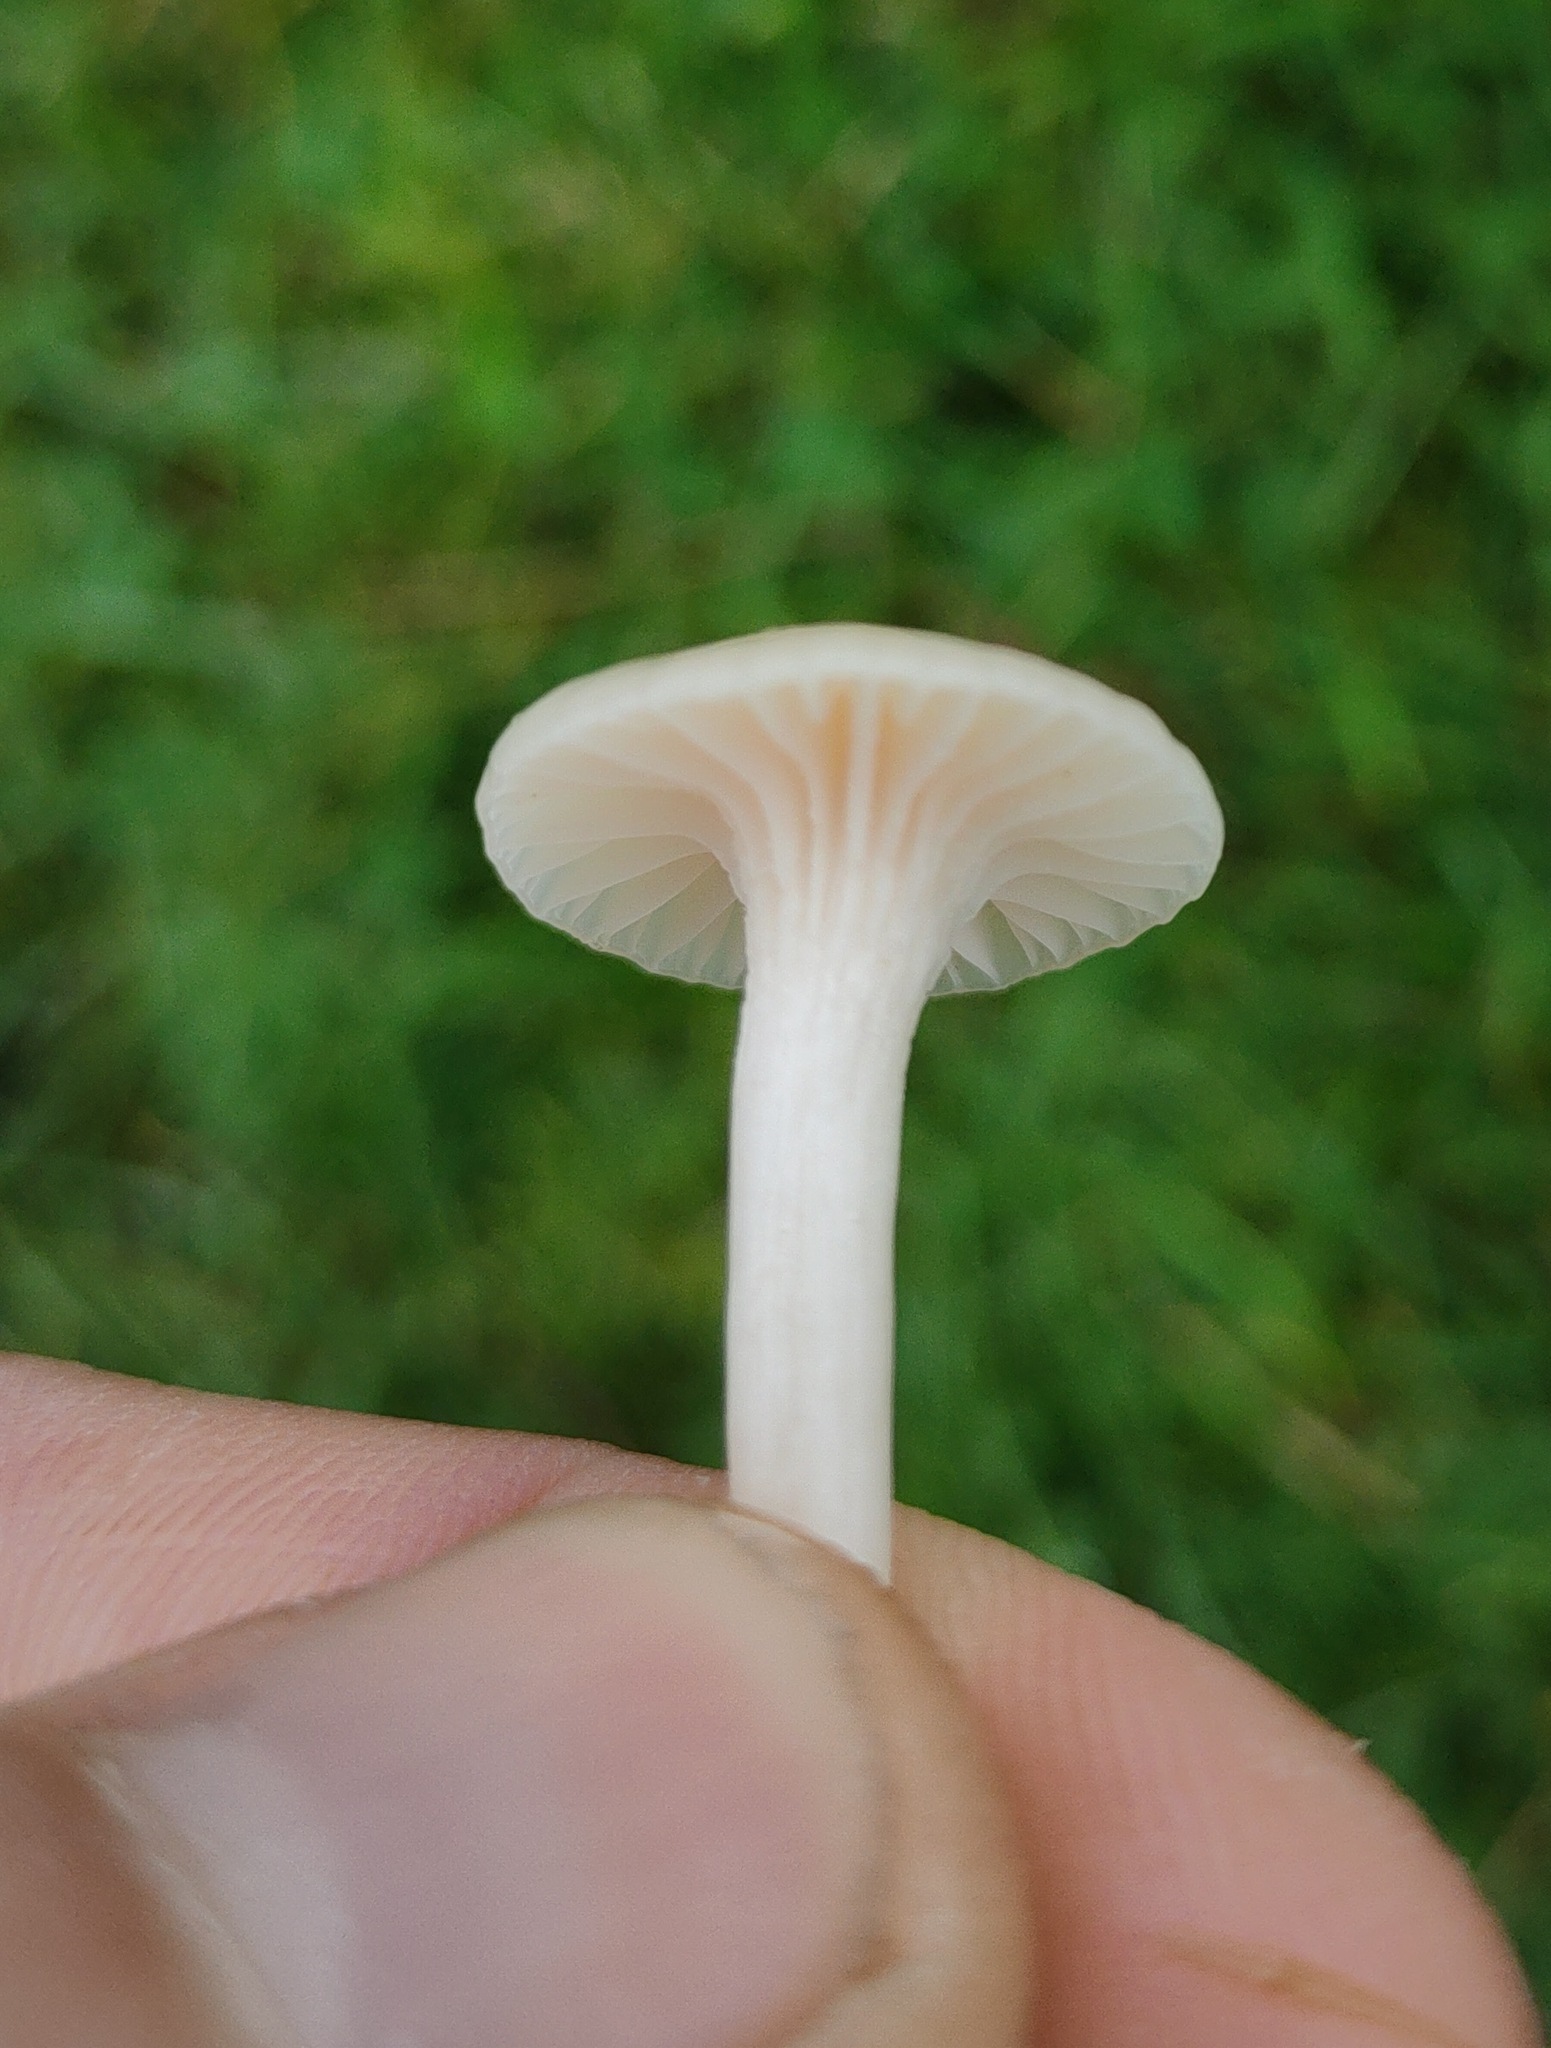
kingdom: Fungi
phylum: Basidiomycota
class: Agaricomycetes
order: Agaricales
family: Hygrophoraceae
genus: Cuphophyllus
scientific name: Cuphophyllus virgineus
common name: Snowy waxcap
